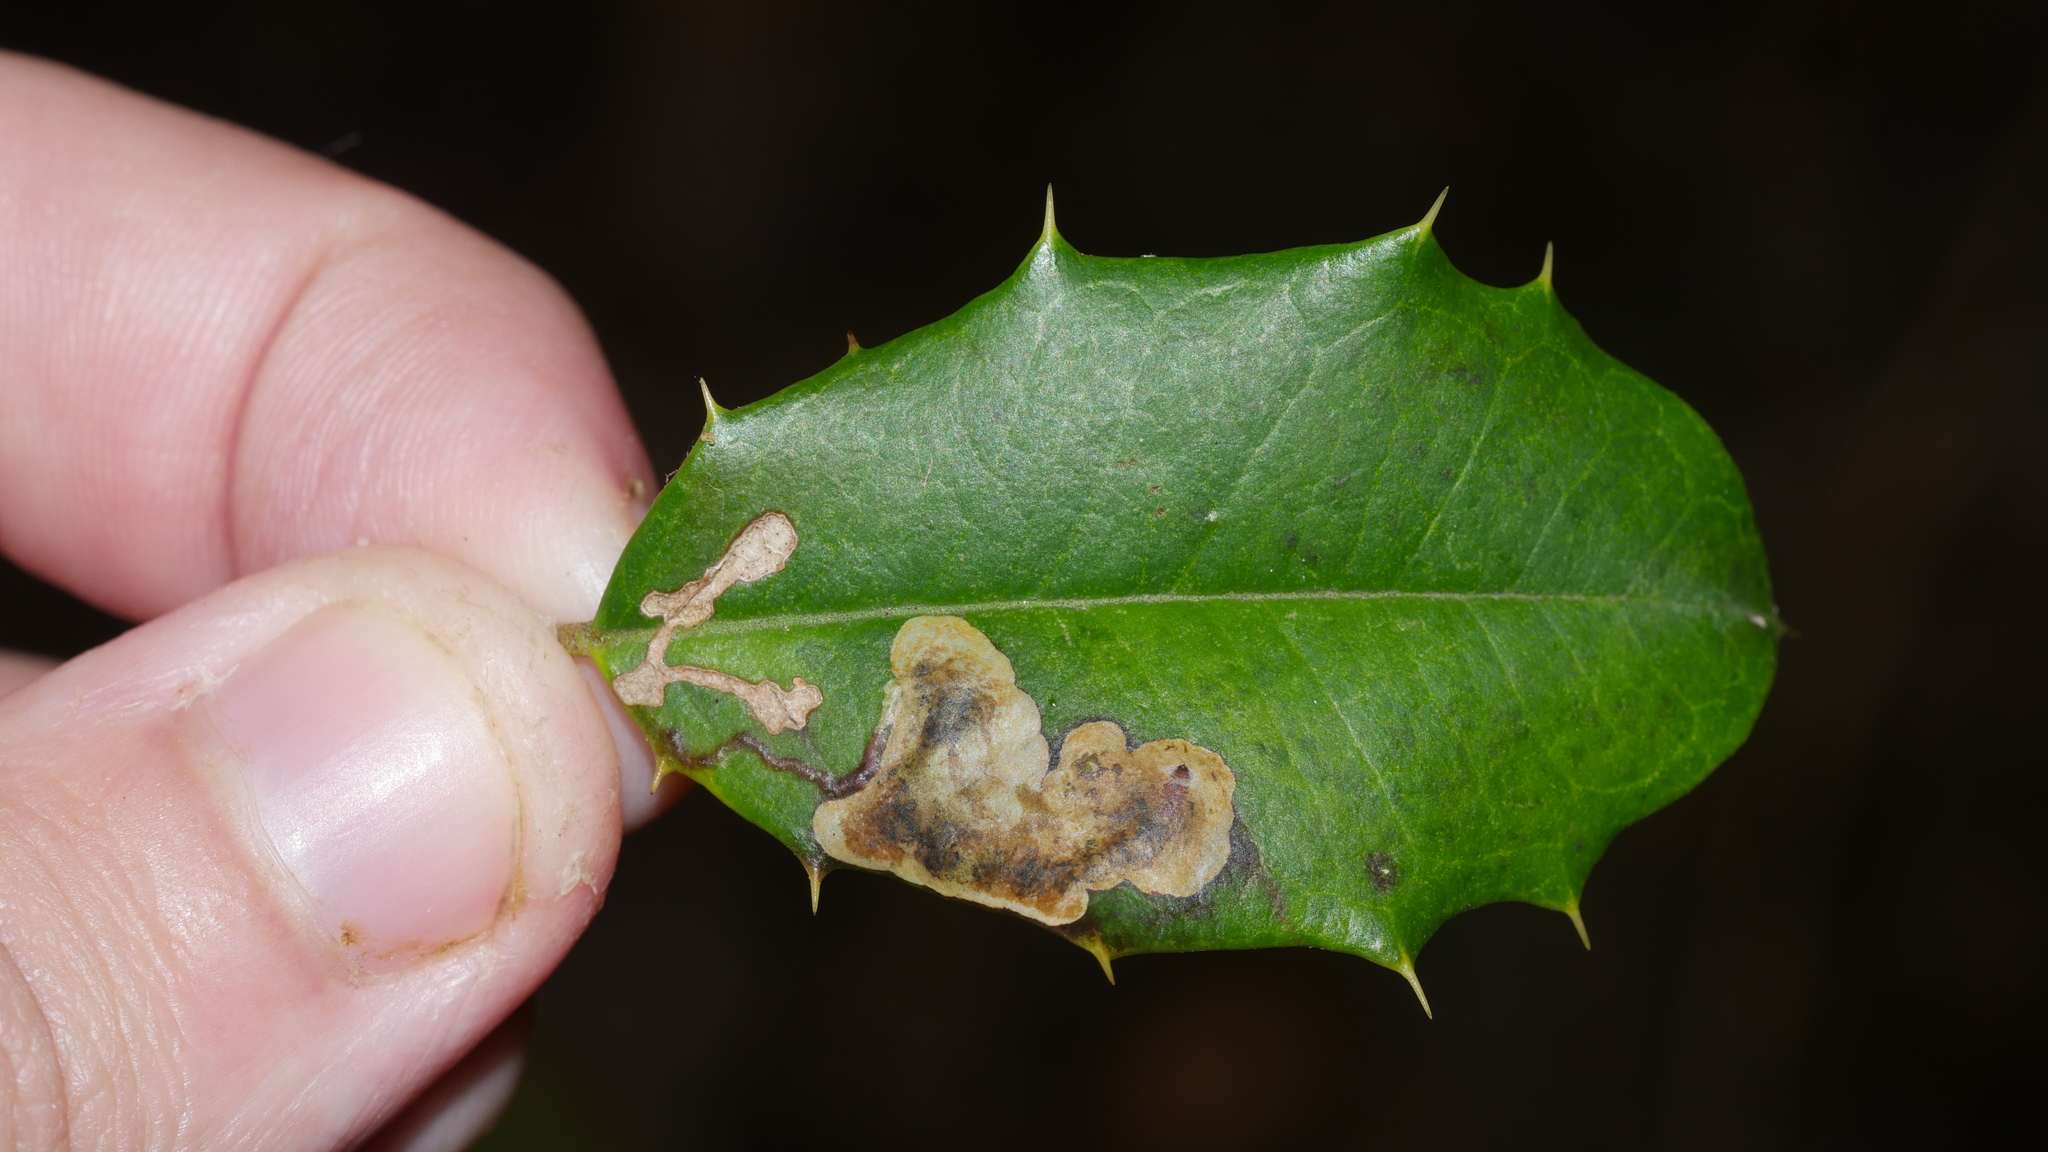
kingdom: Animalia
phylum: Arthropoda
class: Insecta
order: Diptera
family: Agromyzidae
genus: Phytomyza
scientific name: Phytomyza ilicicola
